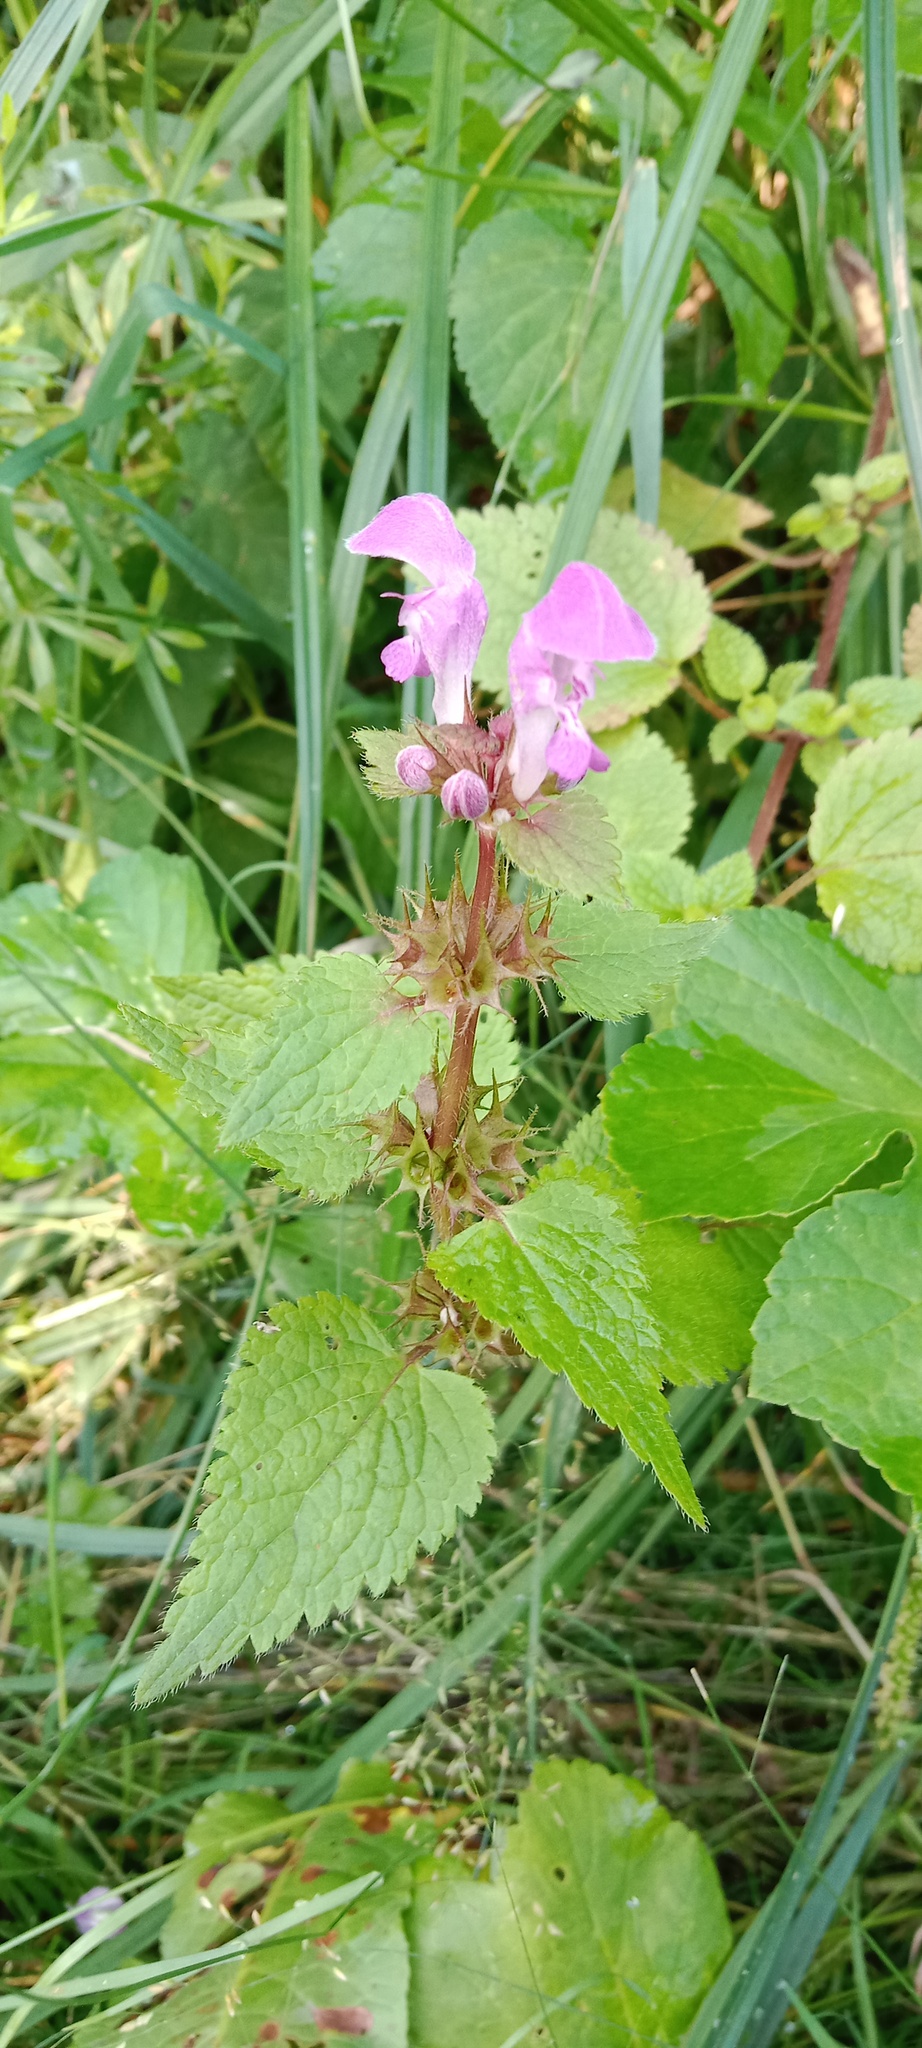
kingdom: Plantae
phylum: Tracheophyta
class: Magnoliopsida
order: Lamiales
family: Lamiaceae
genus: Lamium
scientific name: Lamium maculatum
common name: Spotted dead-nettle
